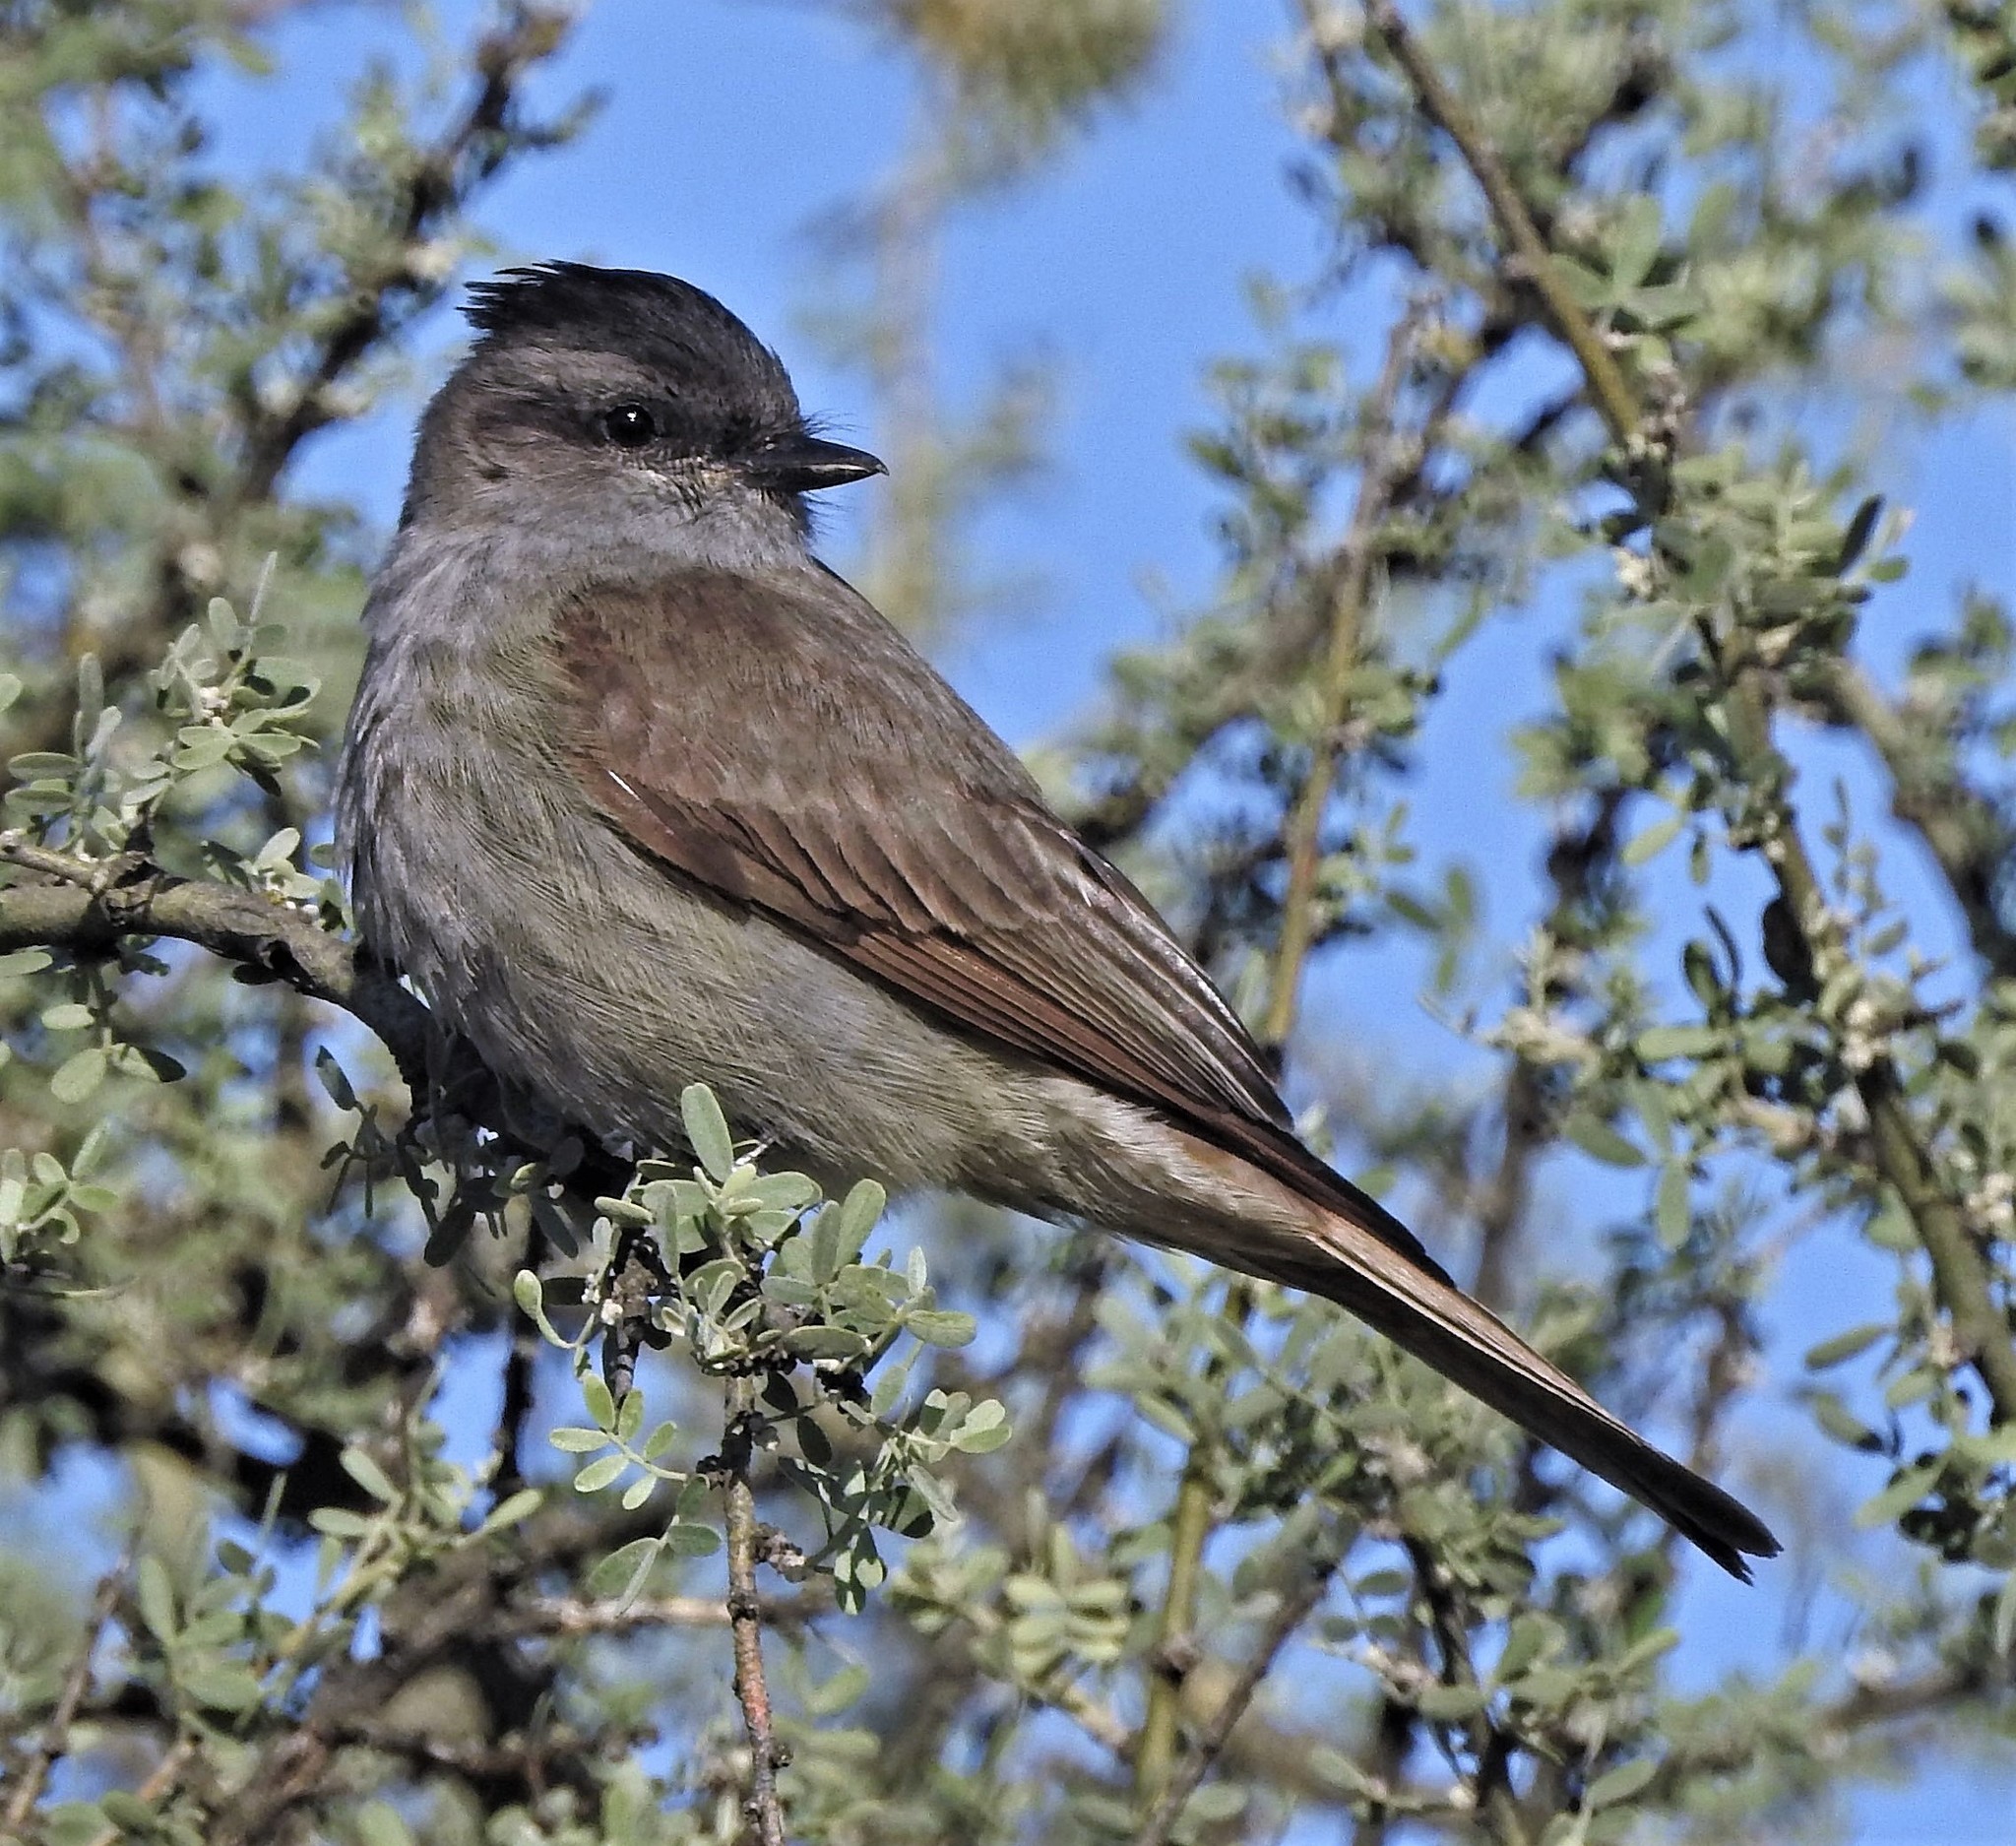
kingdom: Animalia
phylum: Chordata
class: Aves
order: Passeriformes
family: Tyrannidae
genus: Empidonomus
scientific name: Empidonomus aurantioatrocristatus
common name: Crowned slaty flycatcher
